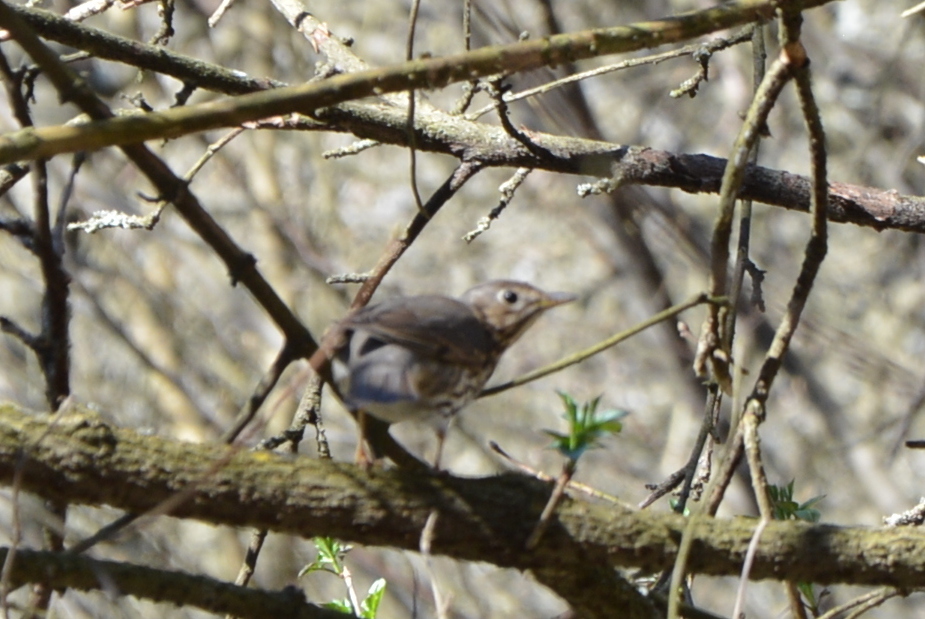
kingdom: Animalia
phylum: Chordata
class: Aves
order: Passeriformes
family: Turdidae
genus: Turdus
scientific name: Turdus philomelos
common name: Song thrush
